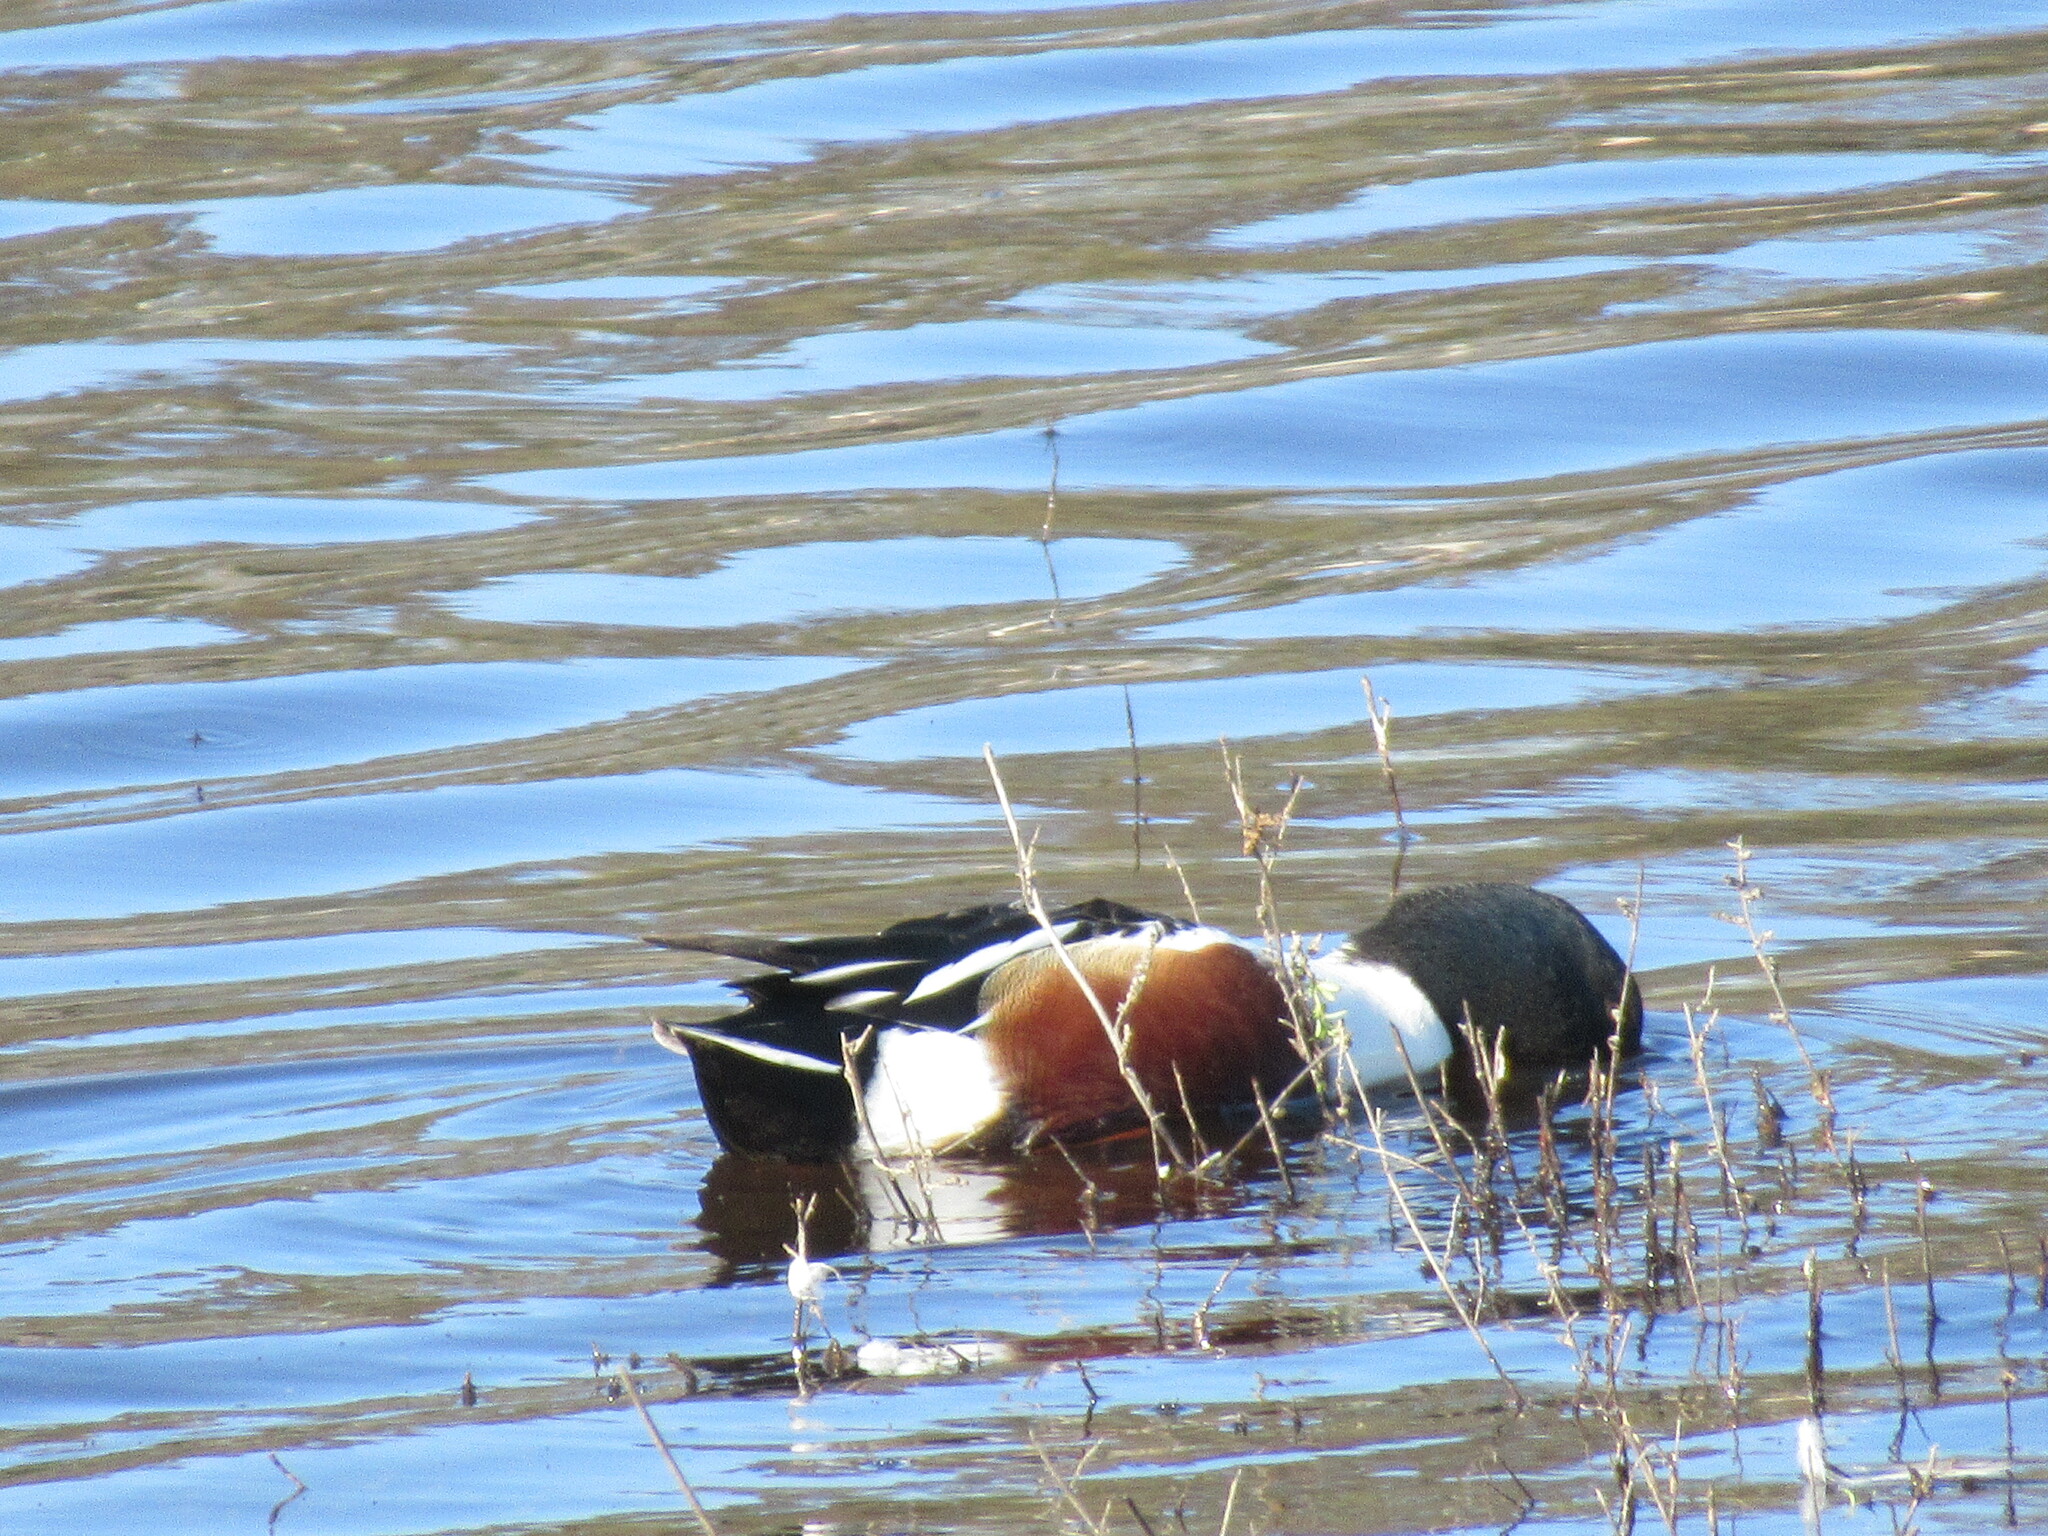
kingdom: Animalia
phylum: Chordata
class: Aves
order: Anseriformes
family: Anatidae
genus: Spatula
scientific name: Spatula clypeata
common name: Northern shoveler
